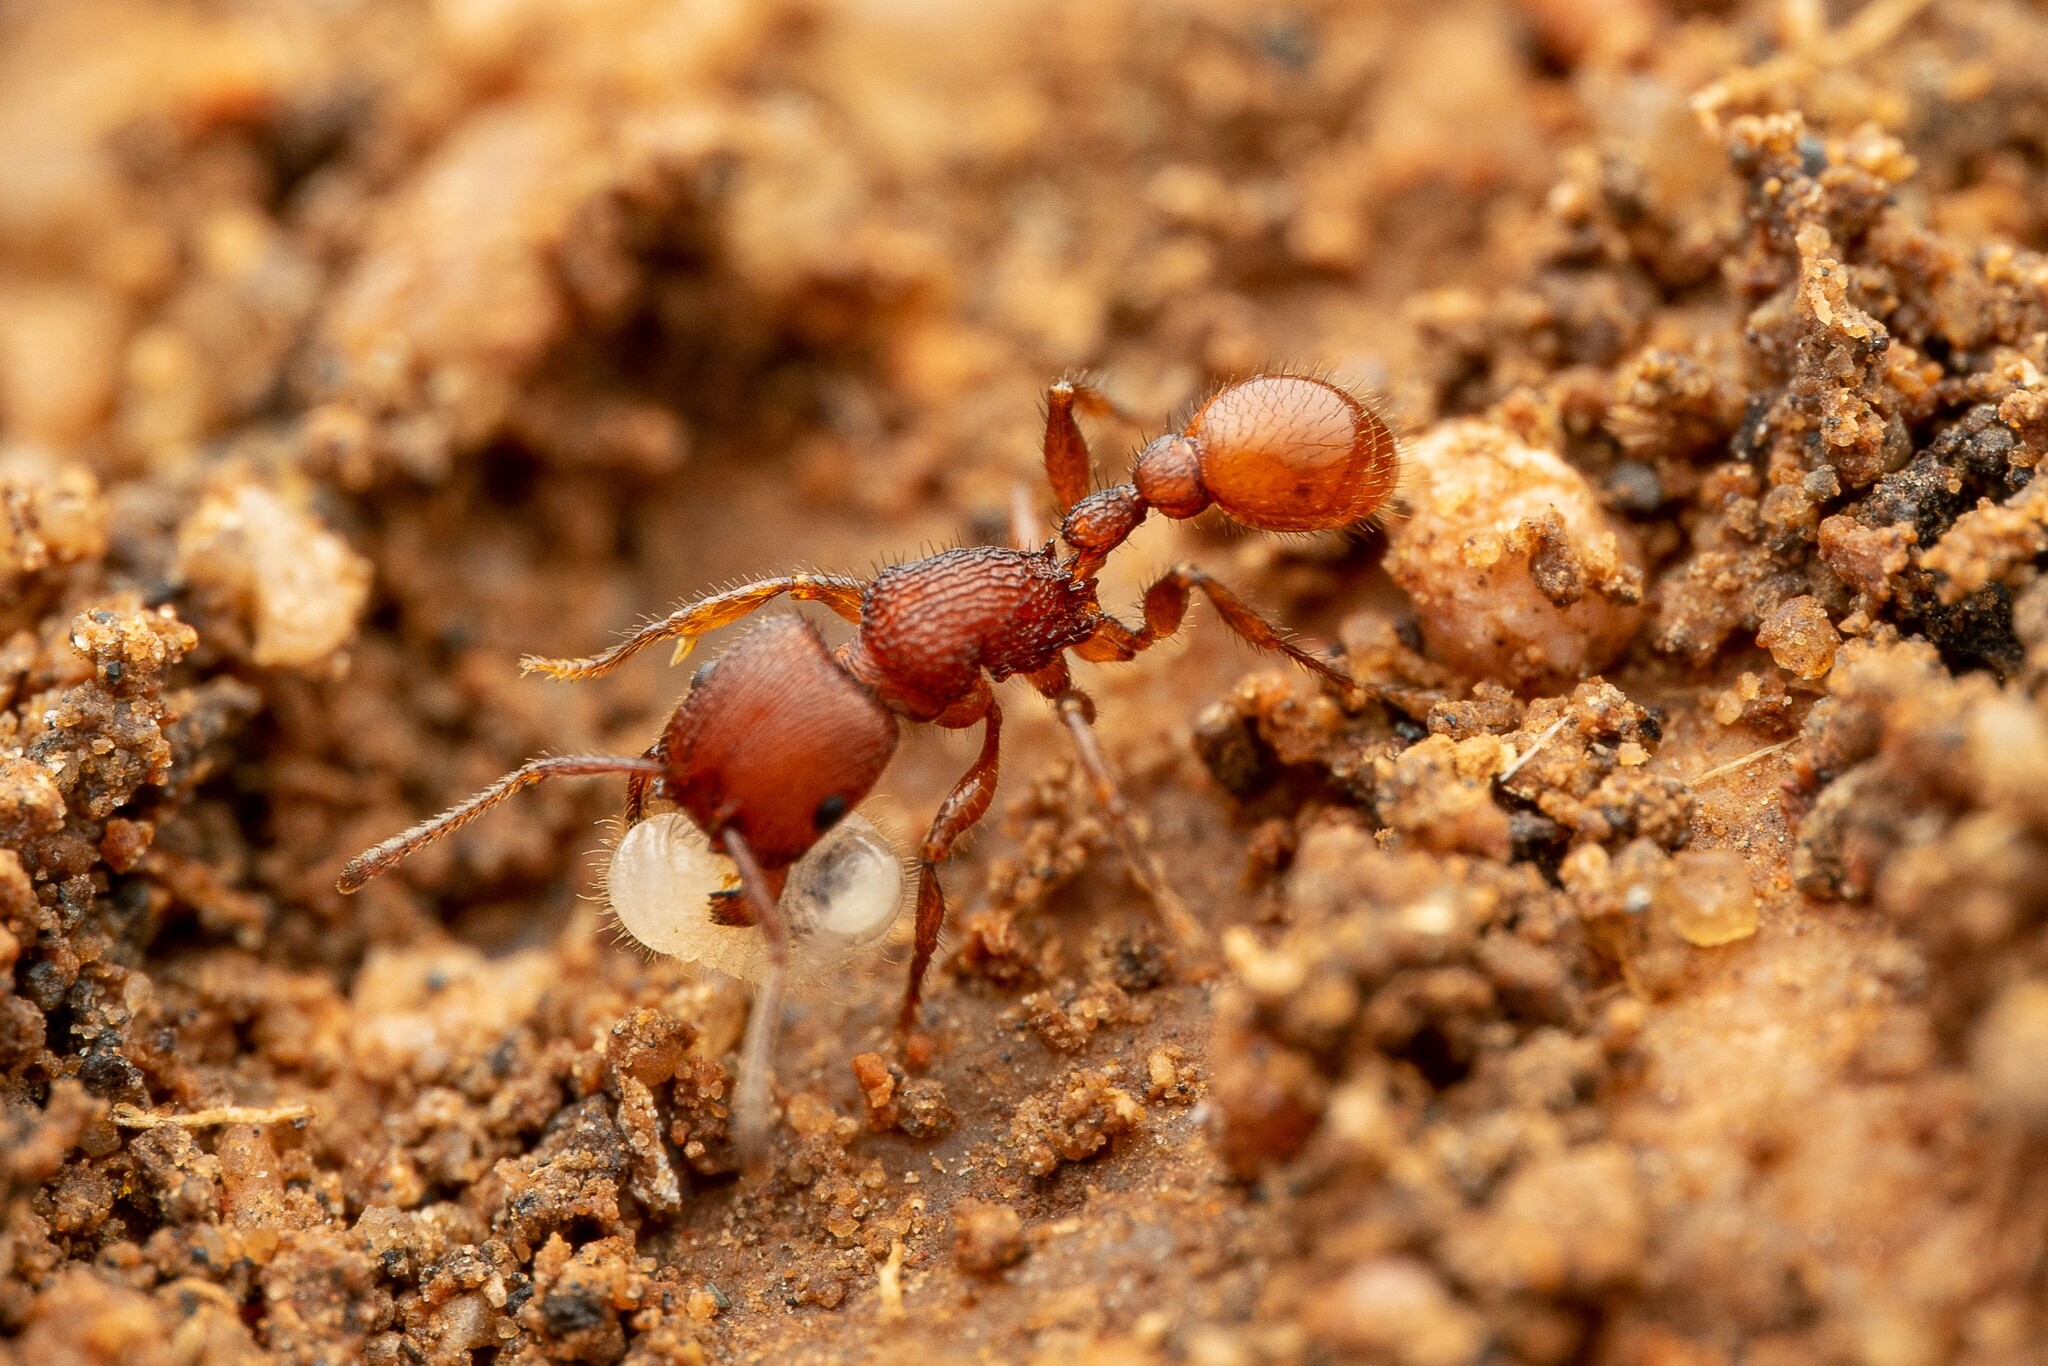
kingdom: Animalia
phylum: Arthropoda
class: Insecta
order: Hymenoptera
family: Formicidae
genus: Pogonomyrmex
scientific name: Pogonomyrmex imberbiculus
